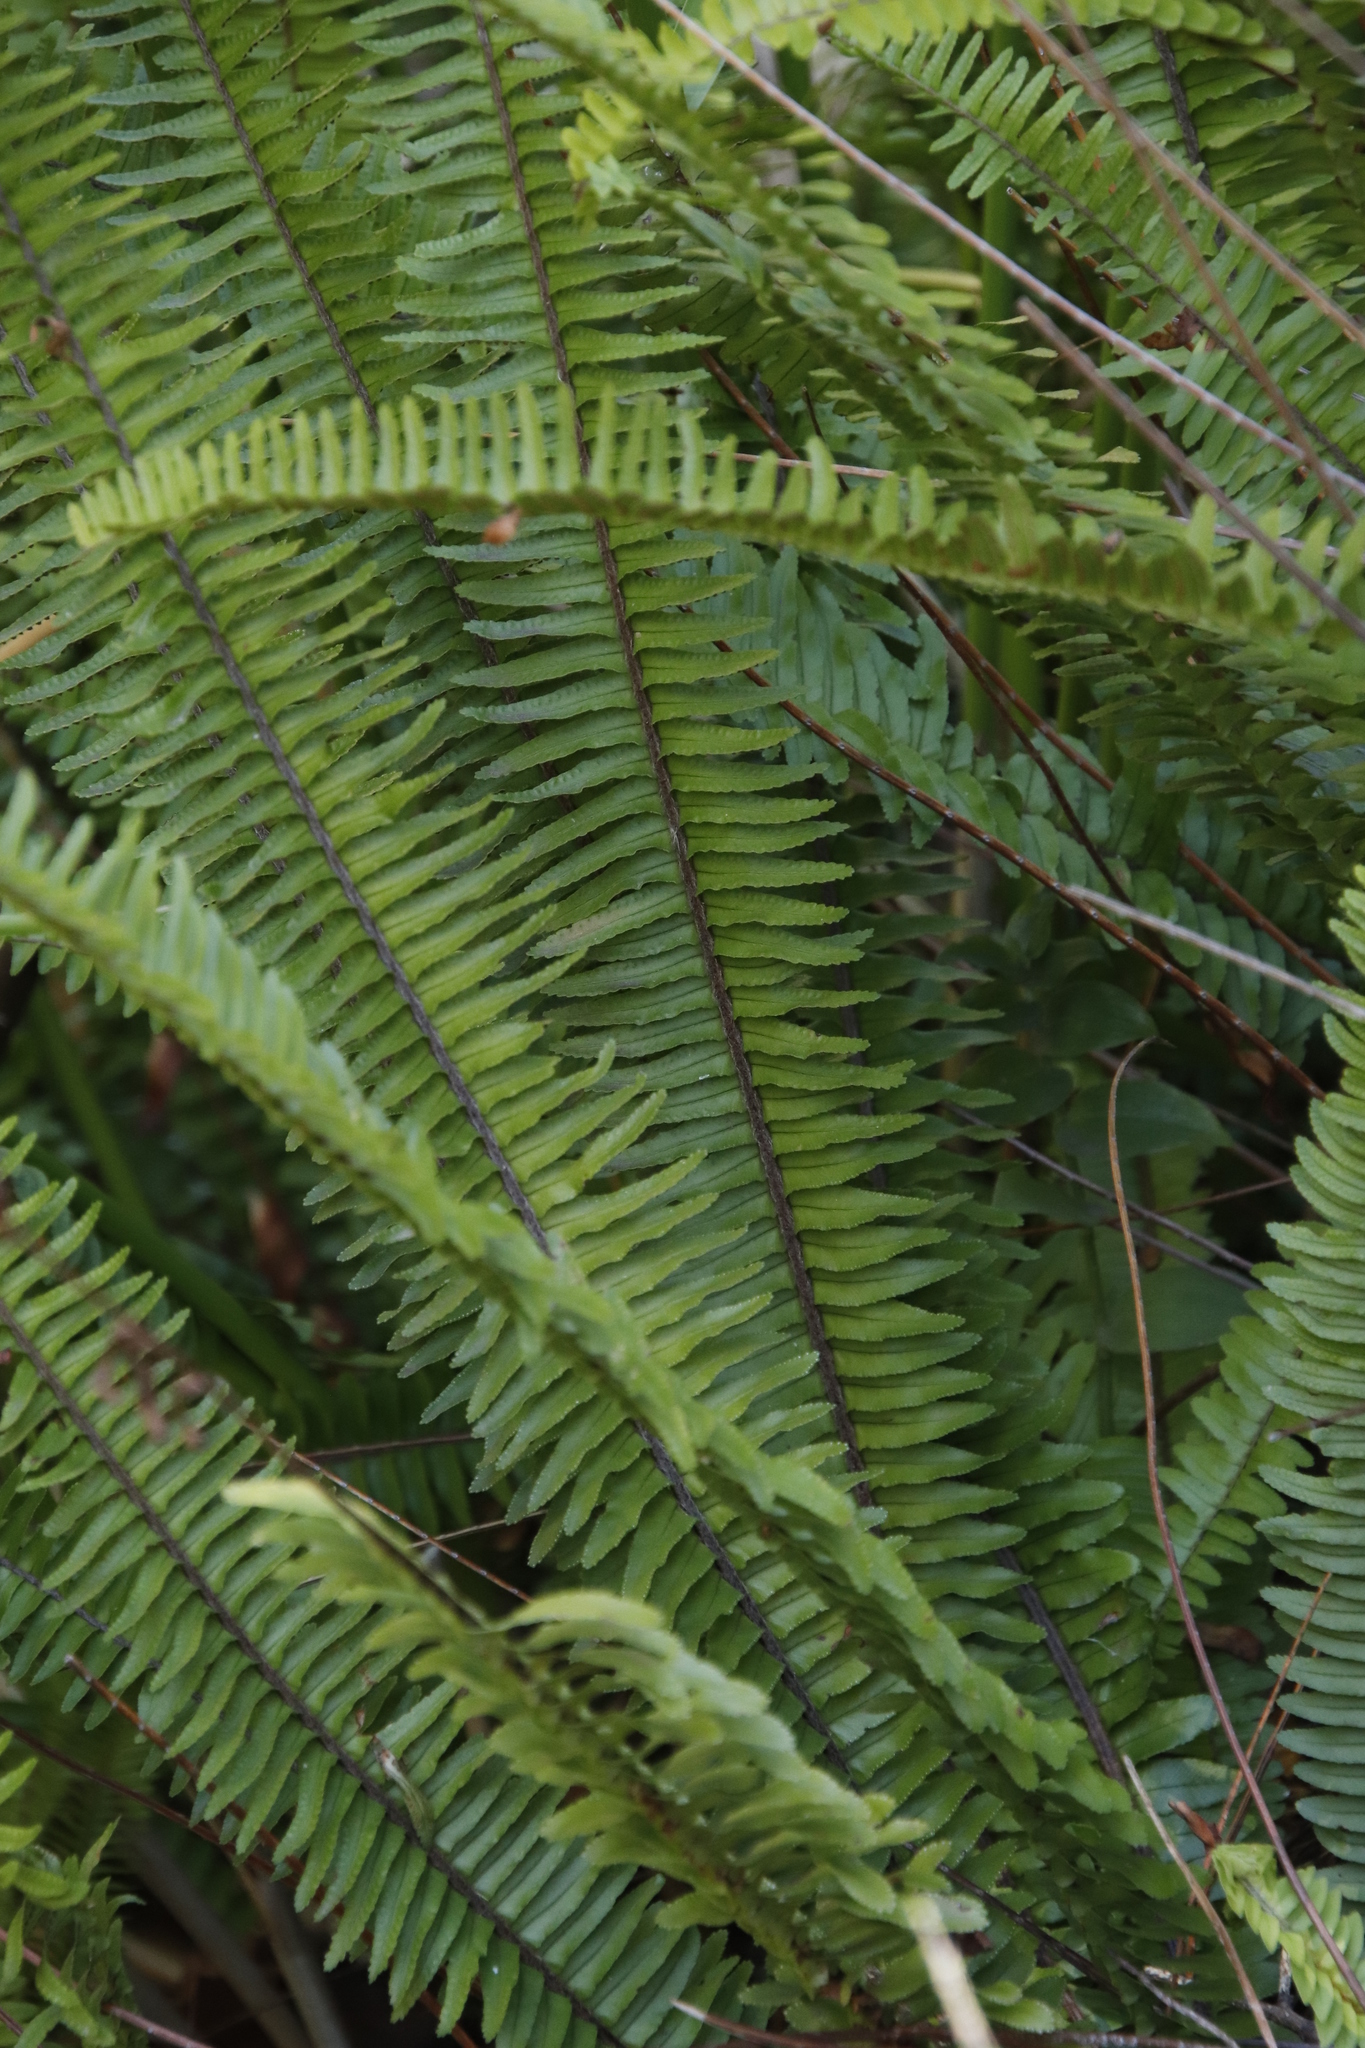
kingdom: Plantae
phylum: Tracheophyta
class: Polypodiopsida
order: Polypodiales
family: Nephrolepidaceae
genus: Nephrolepis
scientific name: Nephrolepis cordifolia
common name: Narrow swordfern
